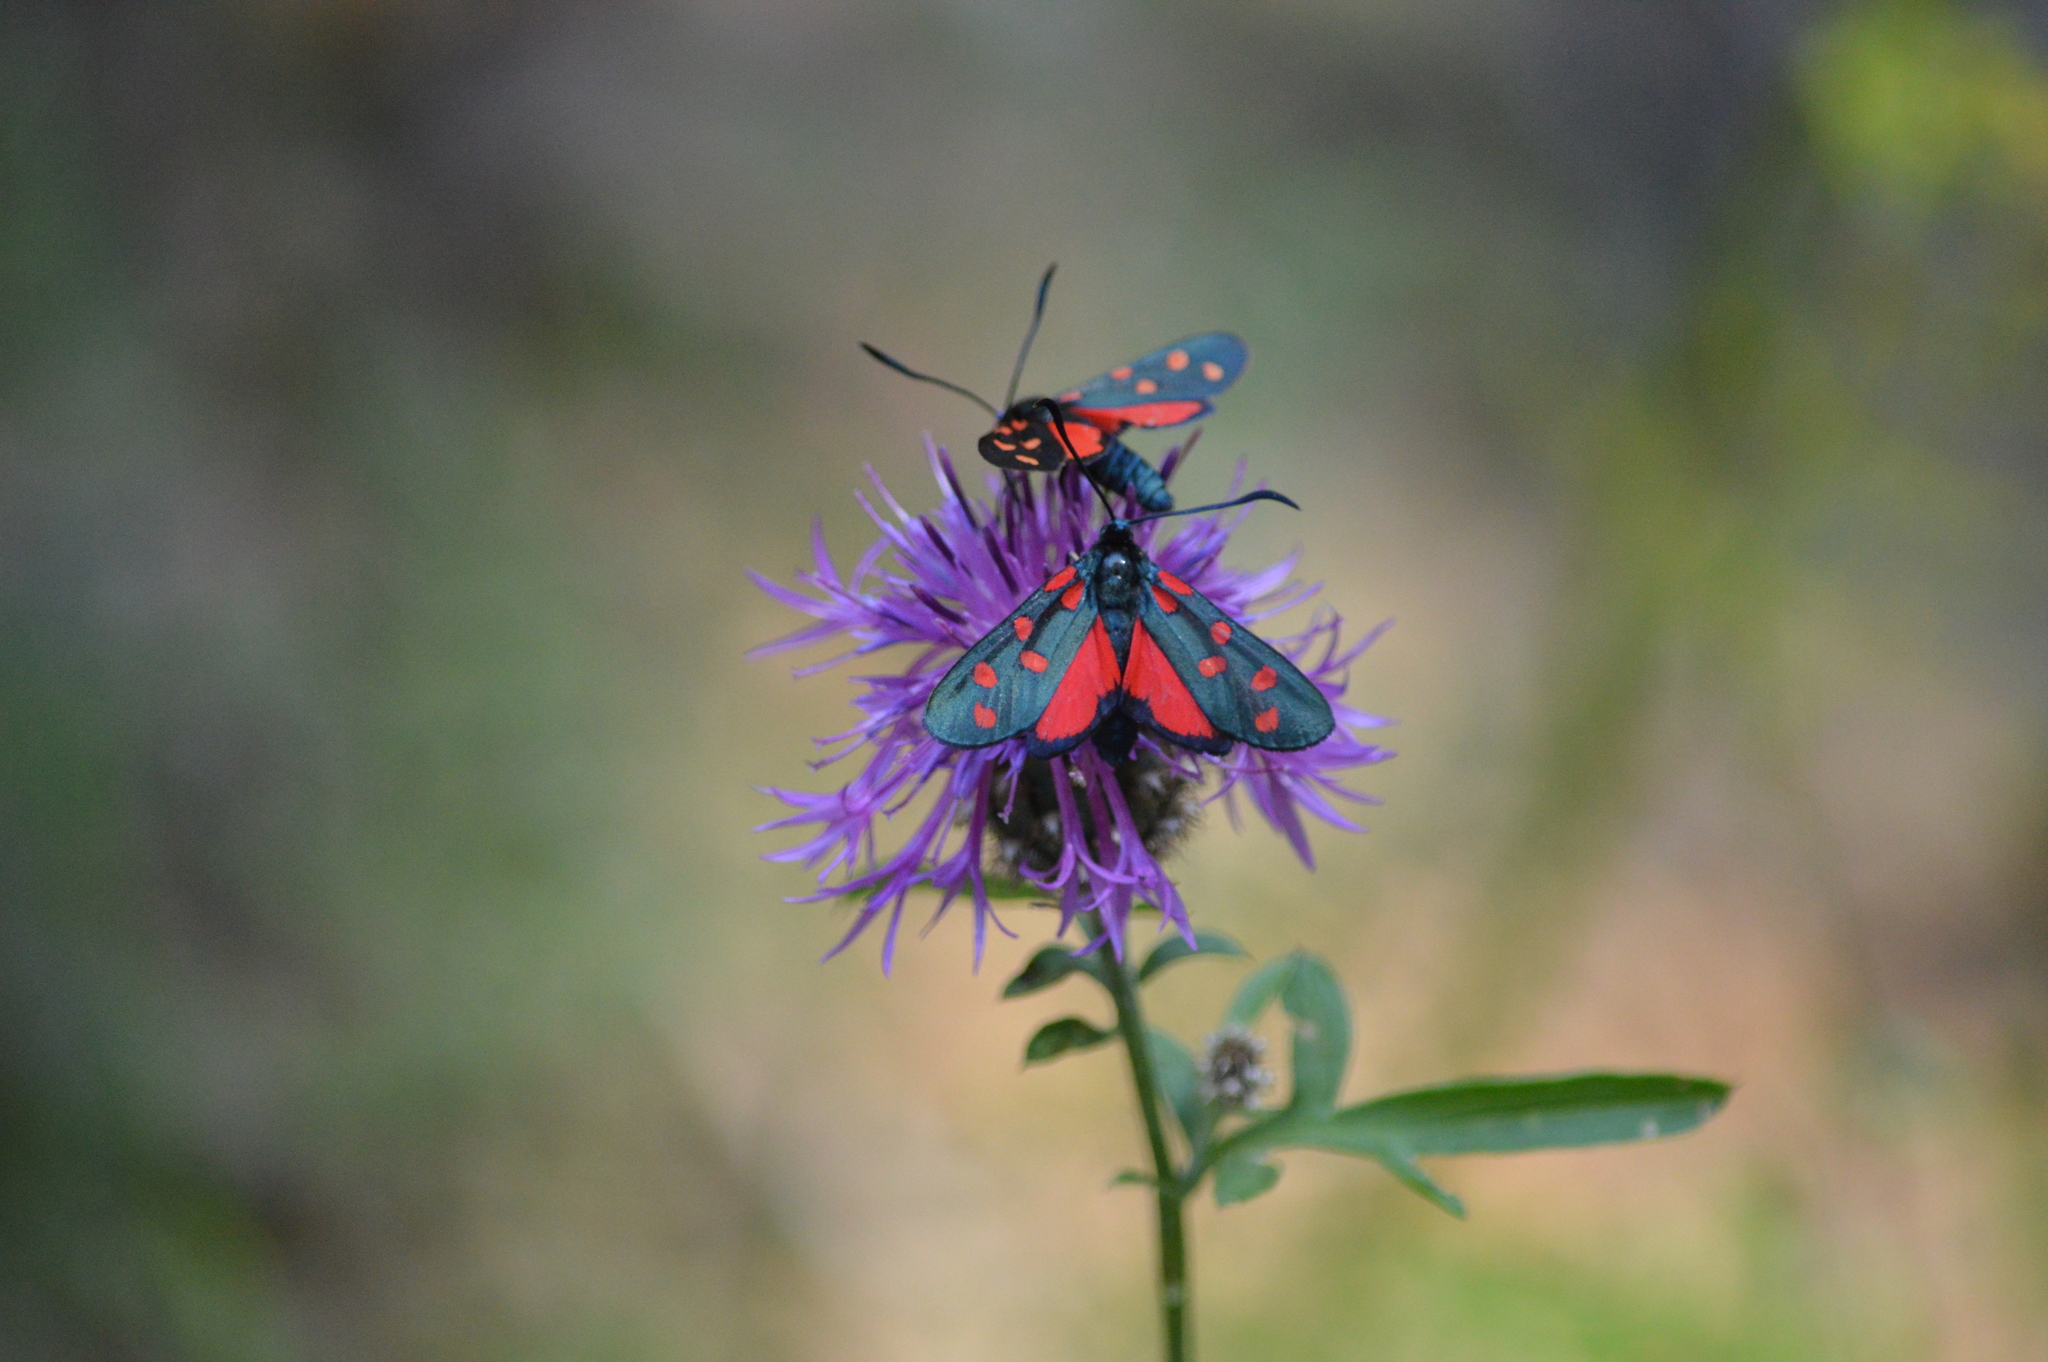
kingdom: Animalia
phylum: Arthropoda
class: Insecta
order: Lepidoptera
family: Zygaenidae
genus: Zygaena
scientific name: Zygaena transalpina
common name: Southern six spot burnet
